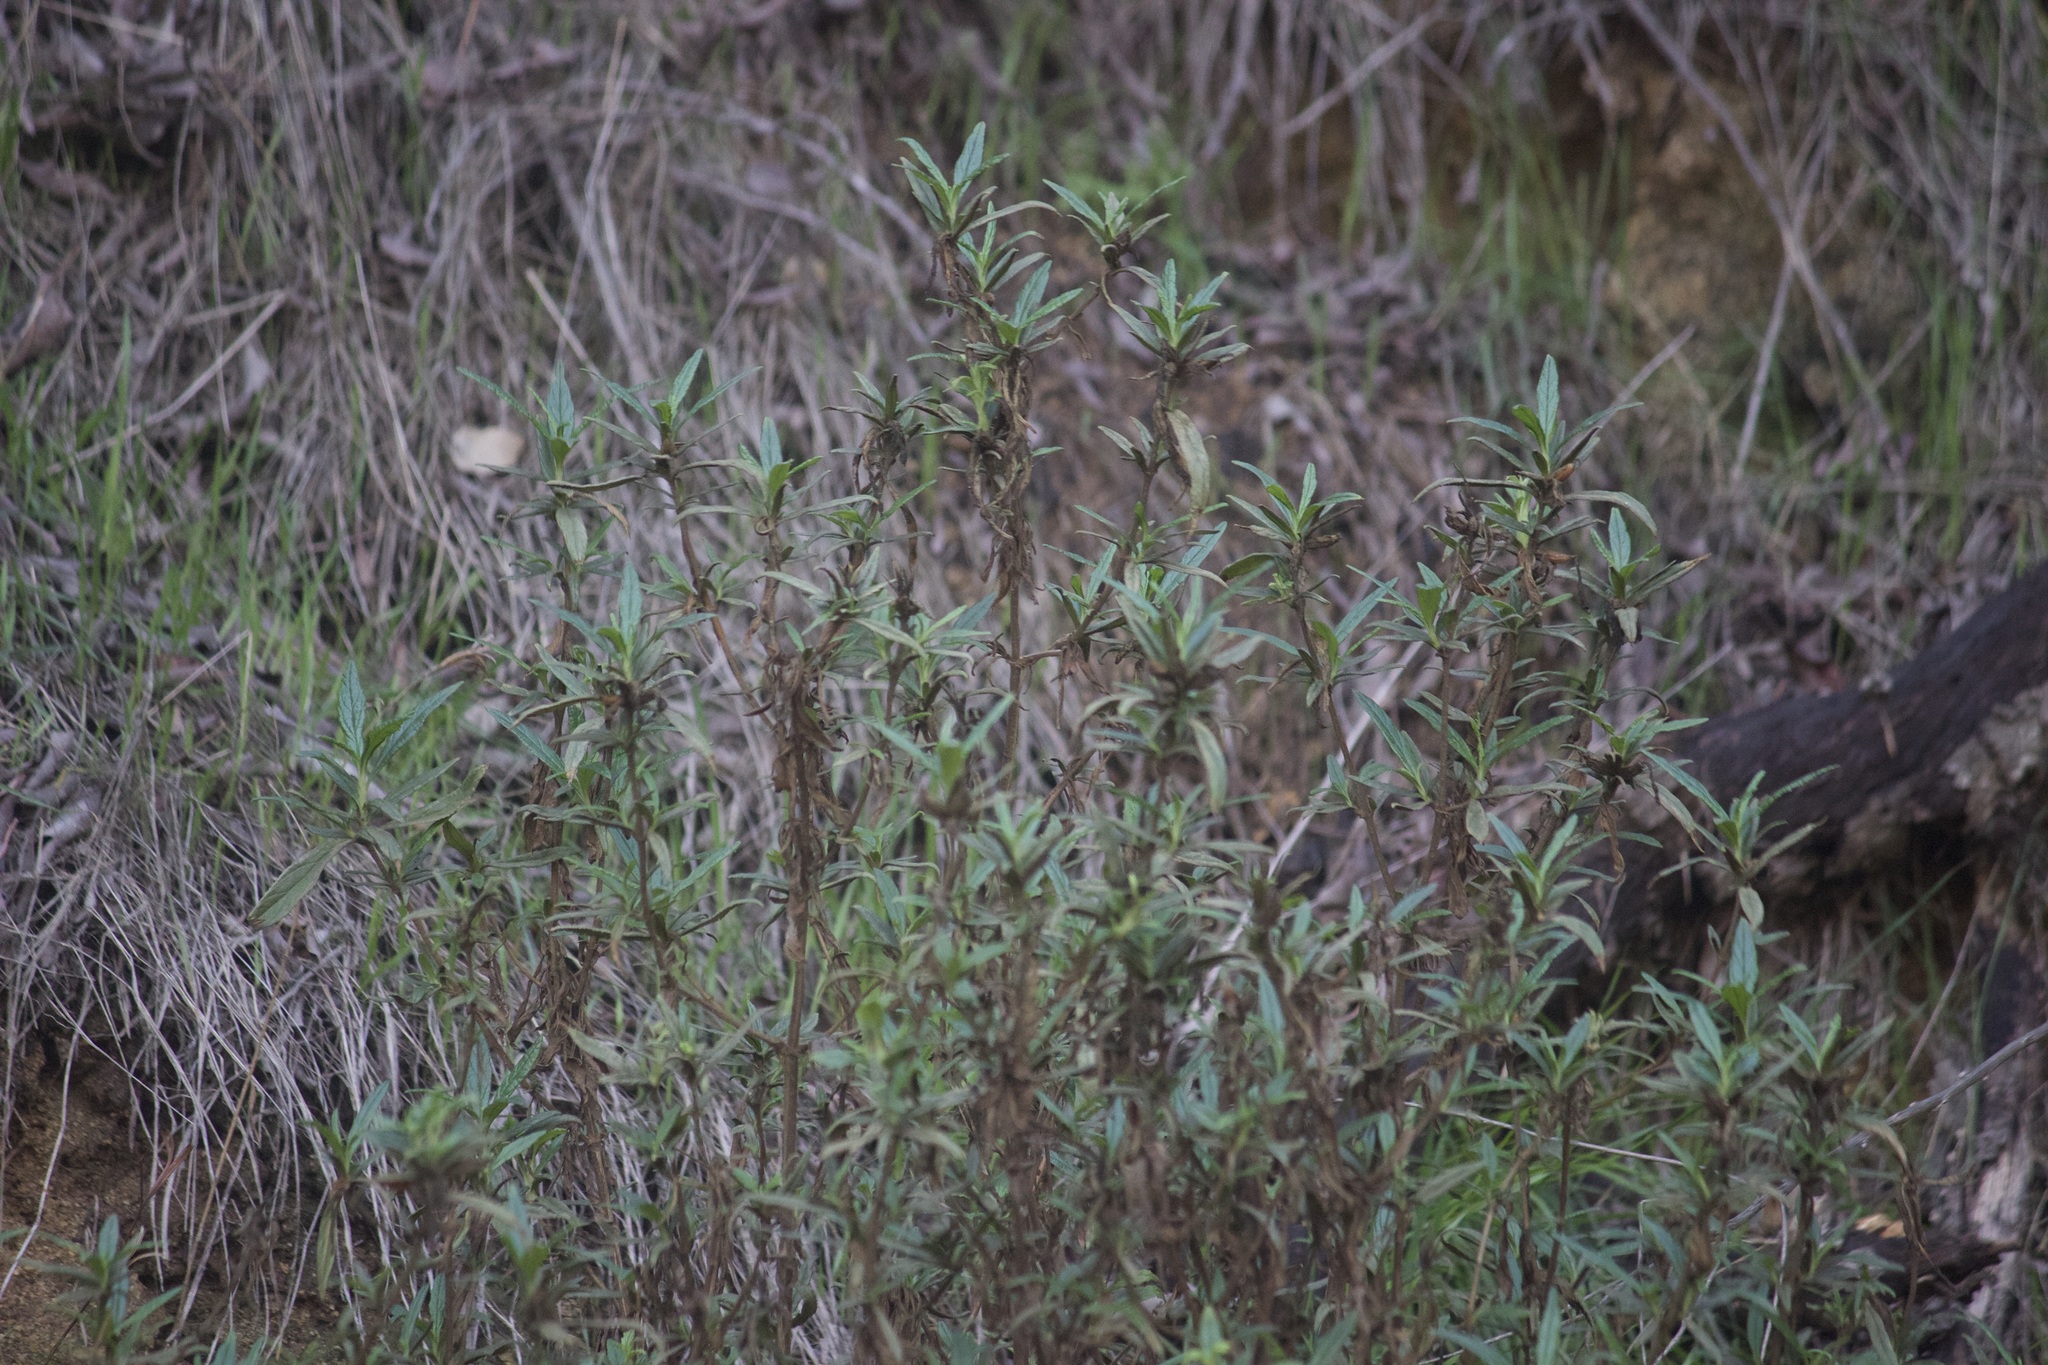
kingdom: Plantae
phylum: Tracheophyta
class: Magnoliopsida
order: Lamiales
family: Phrymaceae
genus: Diplacus
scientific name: Diplacus longiflorus
